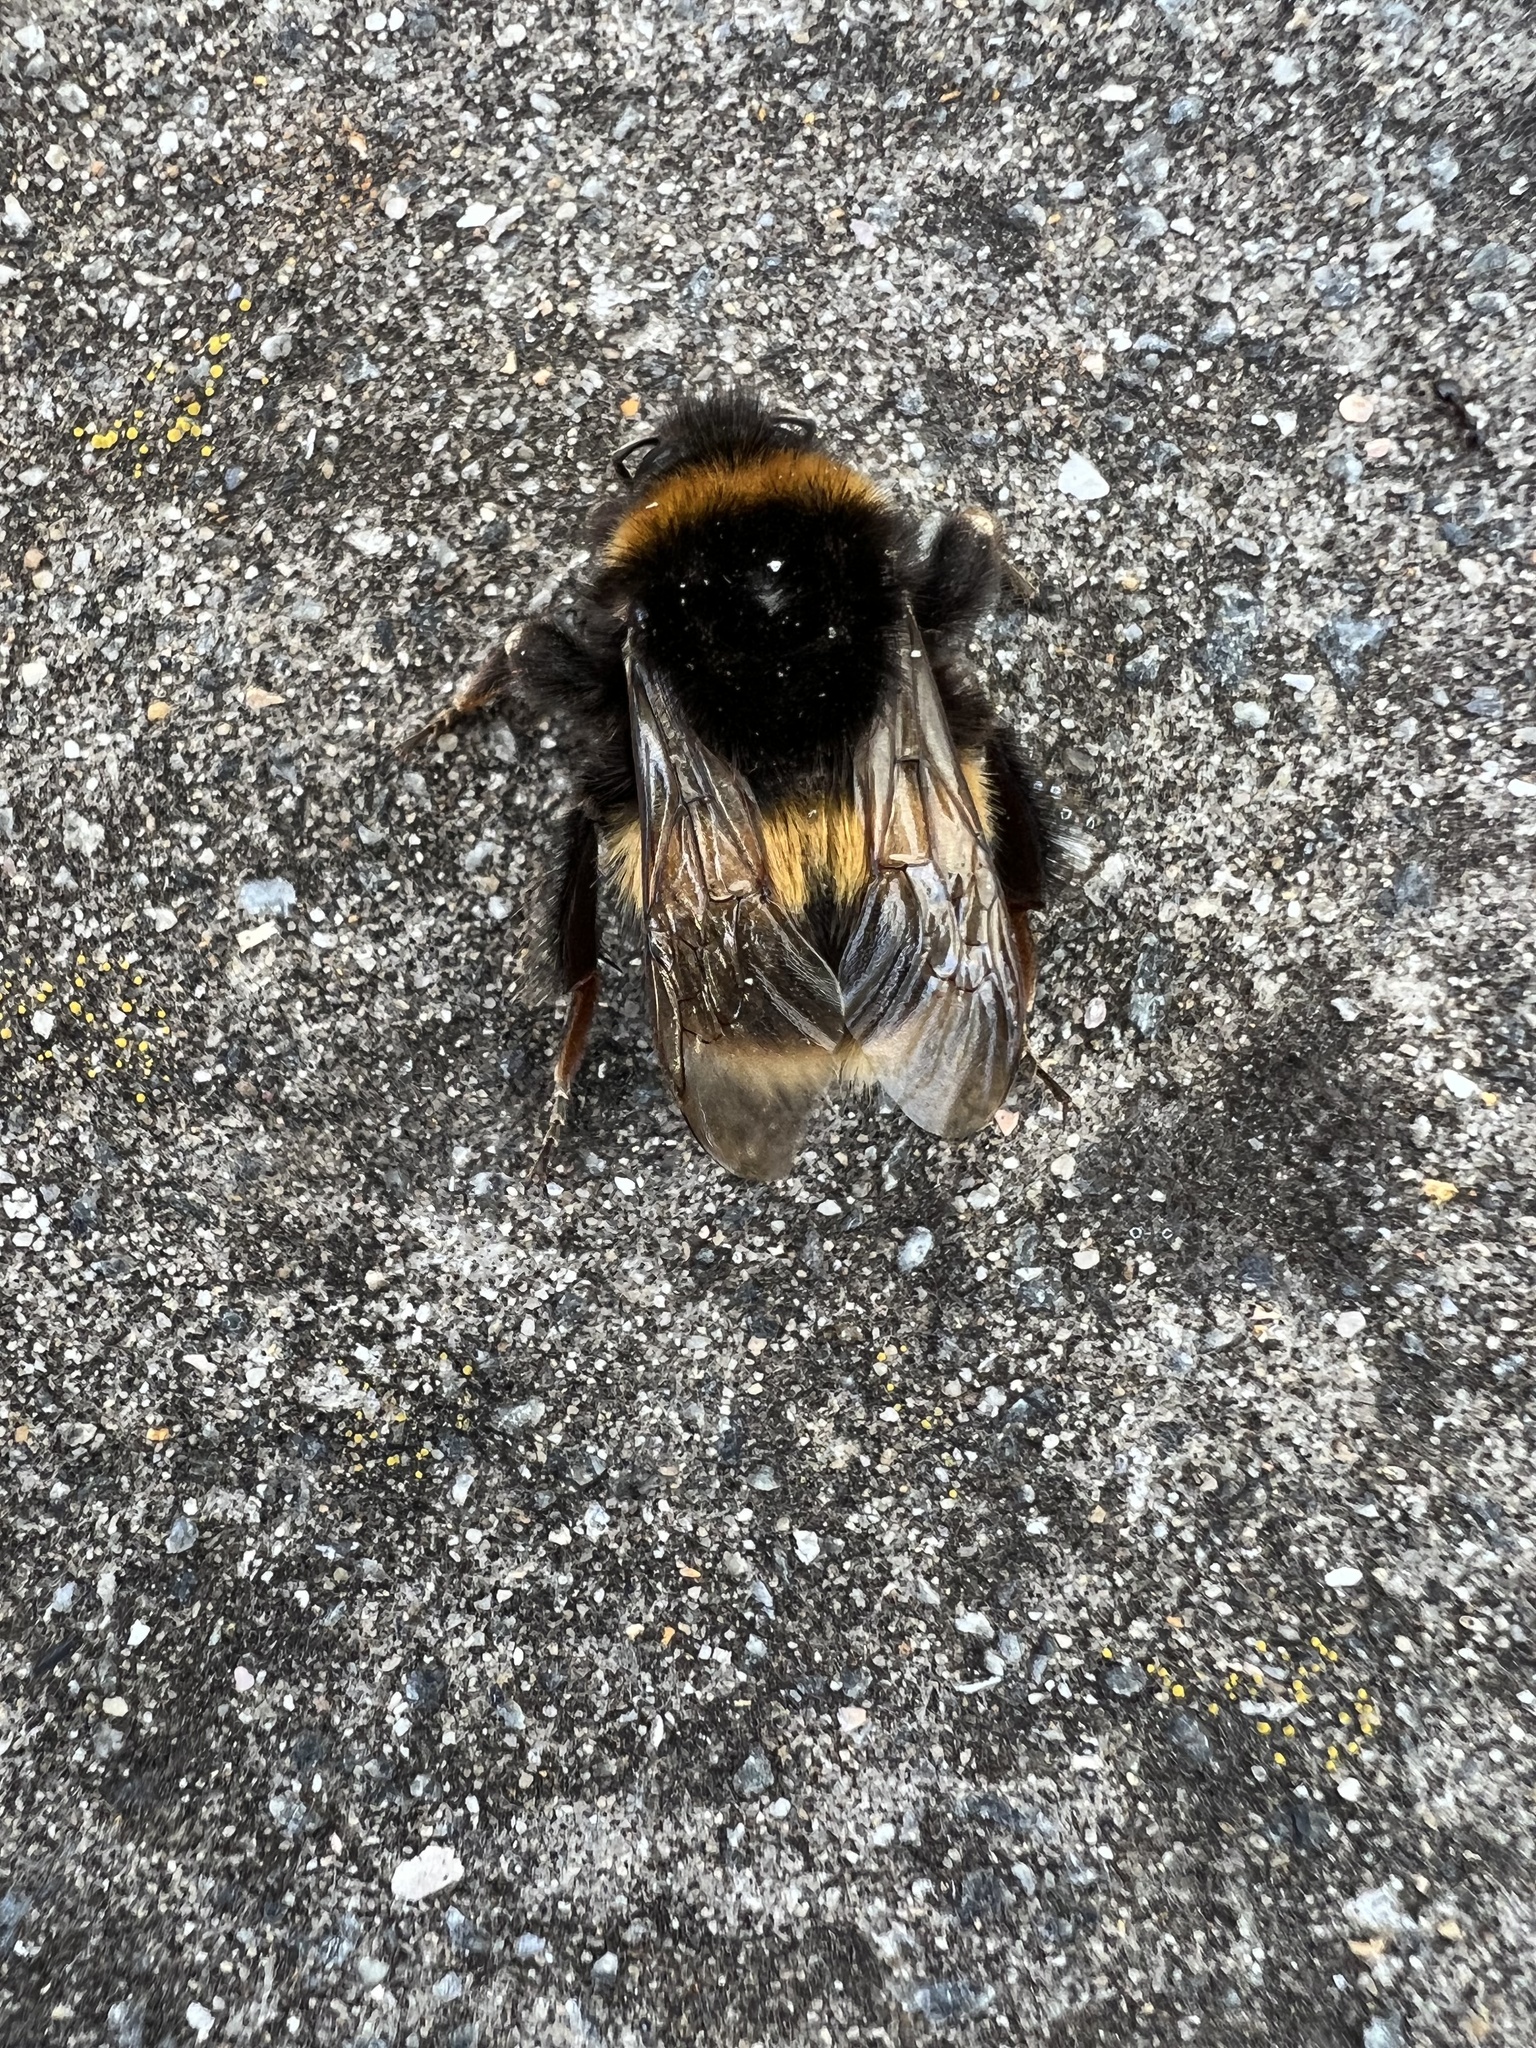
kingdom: Animalia
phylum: Arthropoda
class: Insecta
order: Hymenoptera
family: Apidae
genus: Bombus
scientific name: Bombus terrestris
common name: Buff-tailed bumblebee
